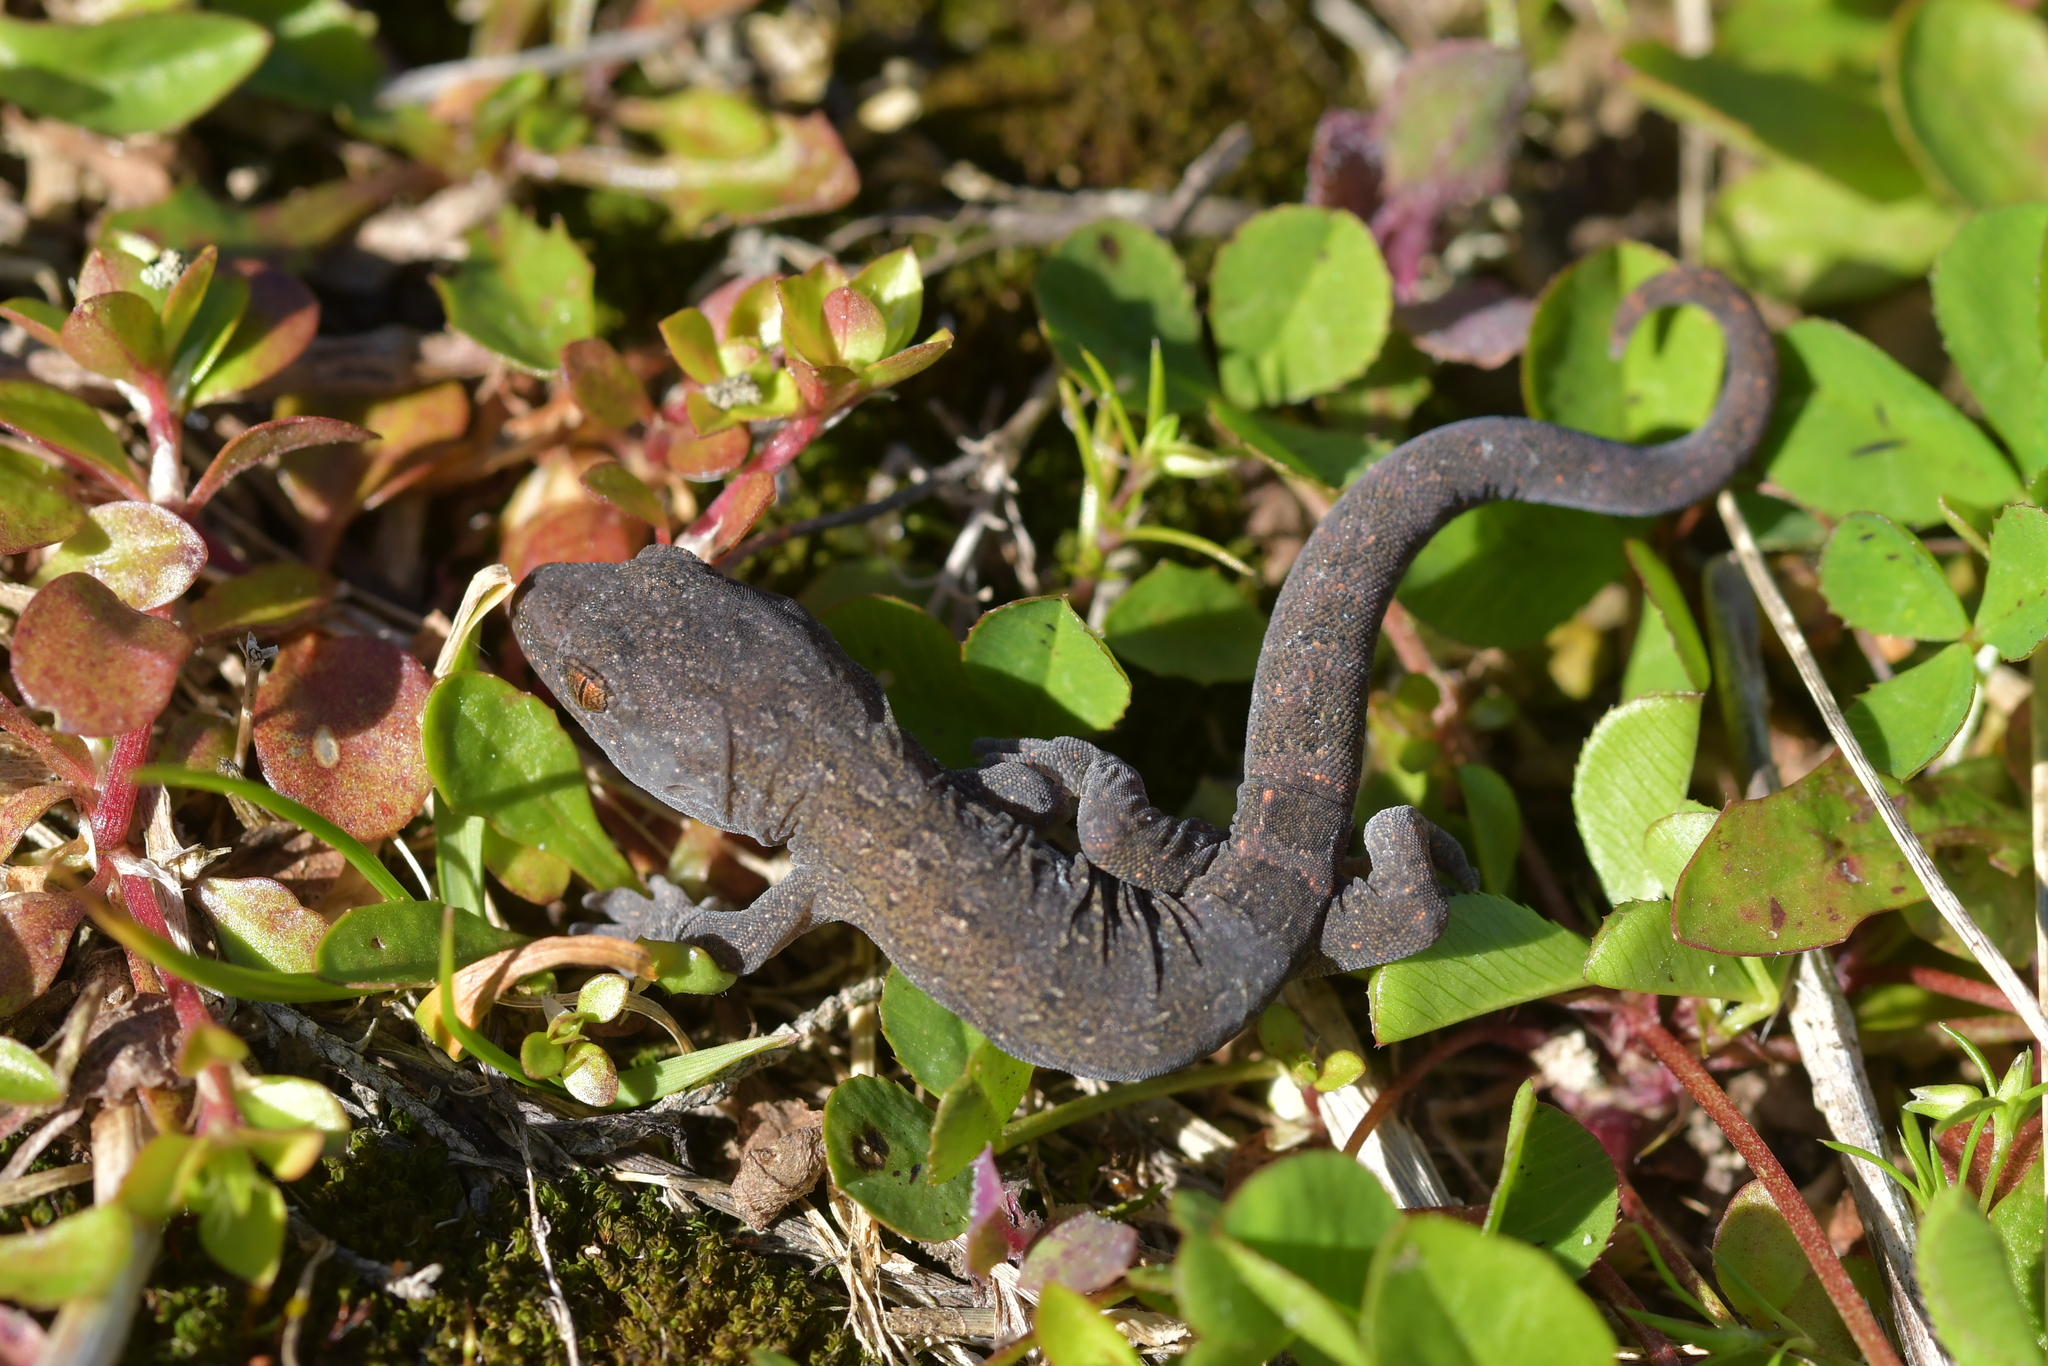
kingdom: Animalia
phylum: Chordata
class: Squamata
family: Diplodactylidae
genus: Woodworthia
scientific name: Woodworthia maculata
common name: Raukawa gecko
